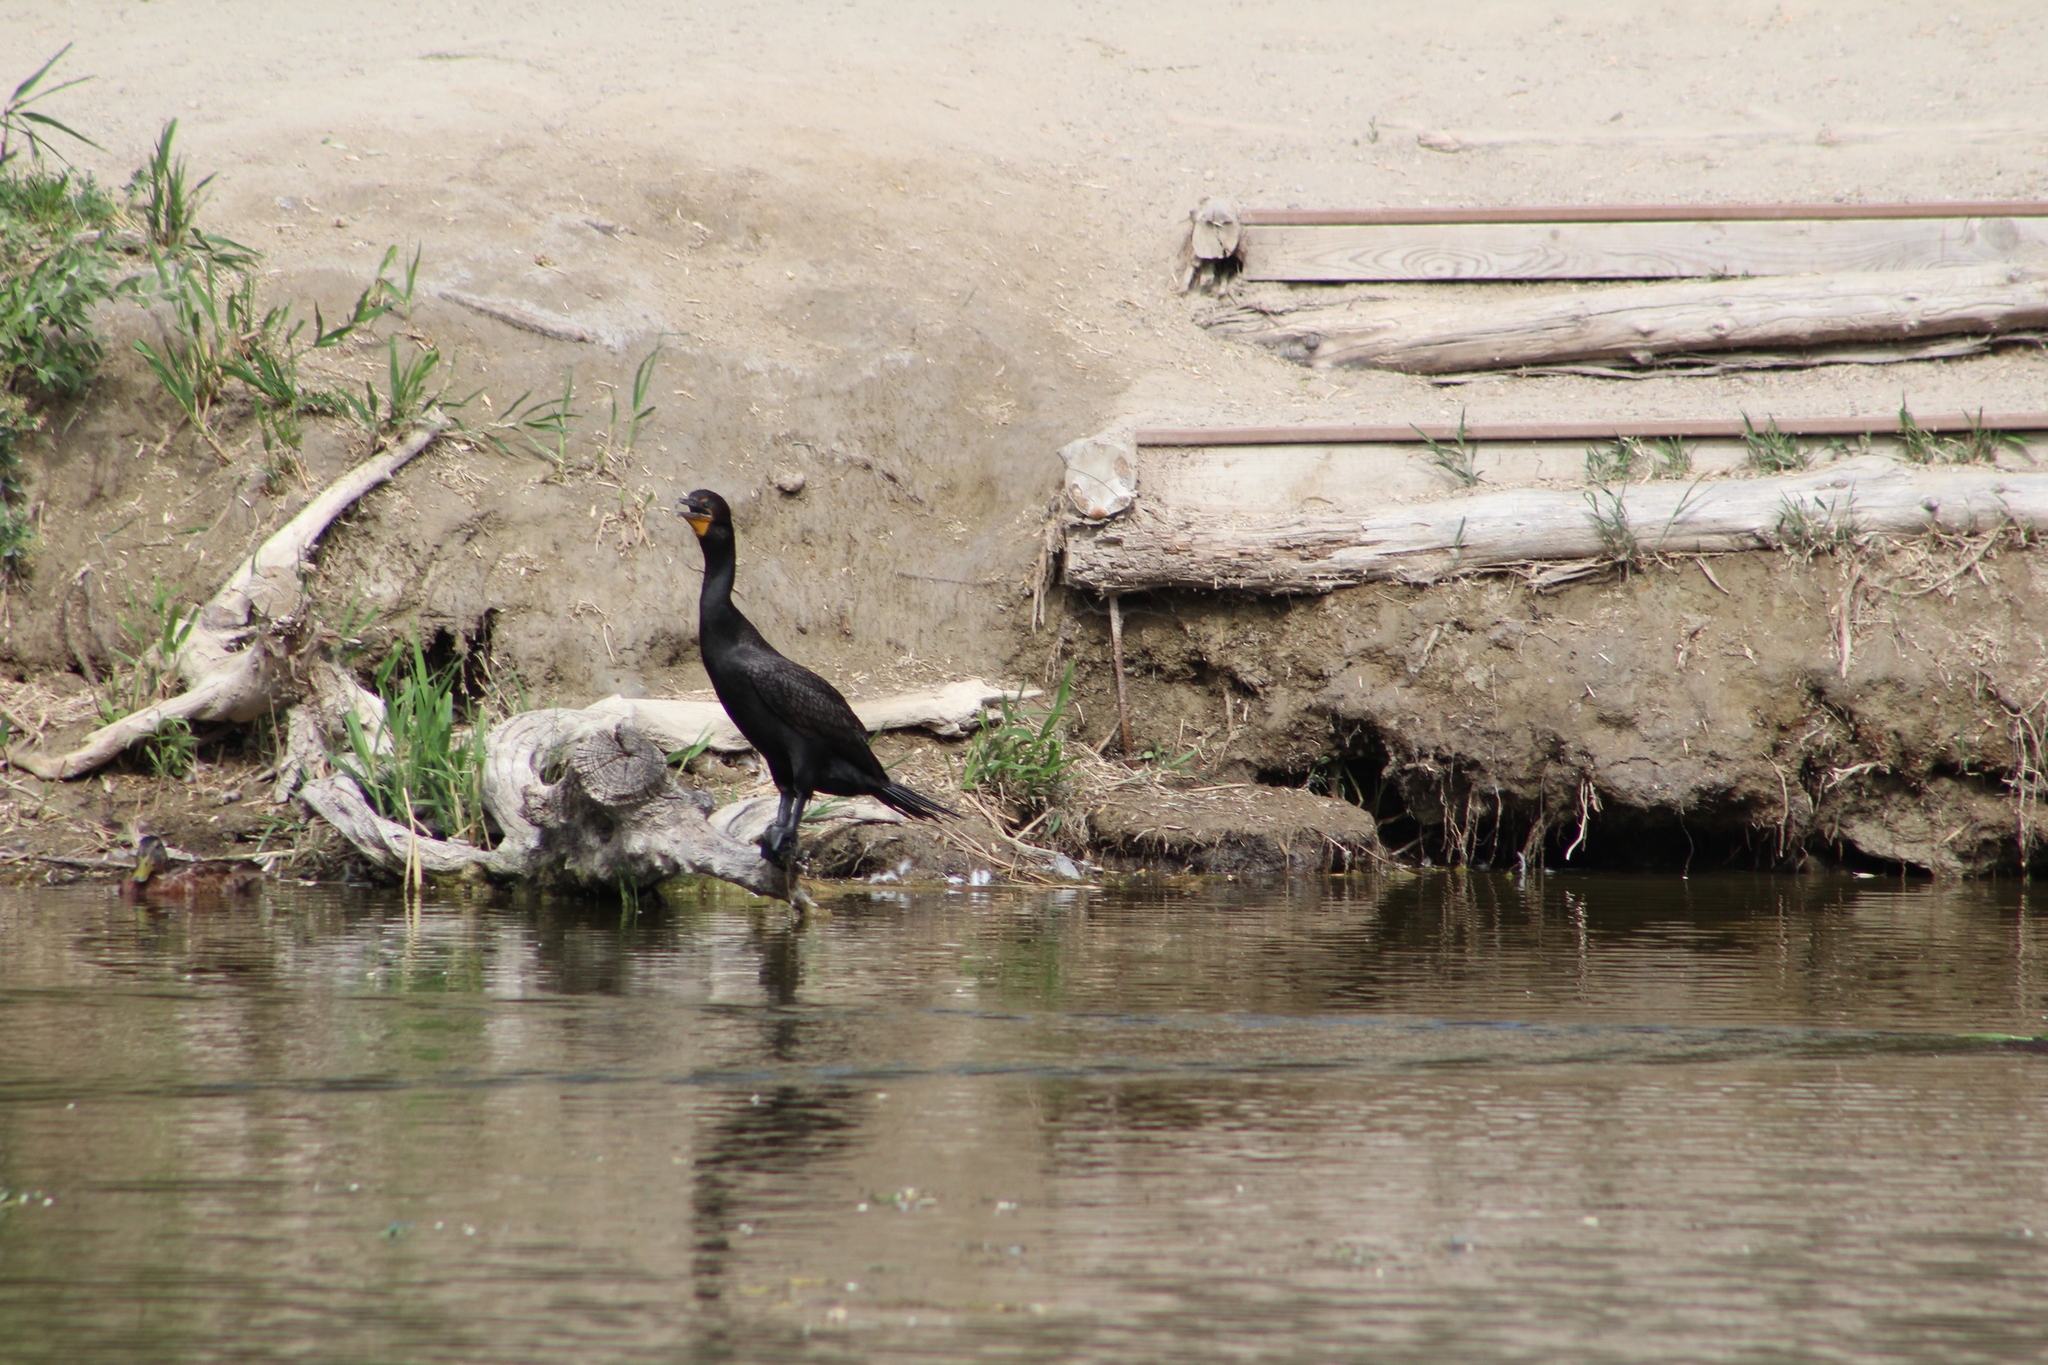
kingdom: Animalia
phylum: Chordata
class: Aves
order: Suliformes
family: Phalacrocoracidae
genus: Phalacrocorax
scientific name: Phalacrocorax auritus
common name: Double-crested cormorant
